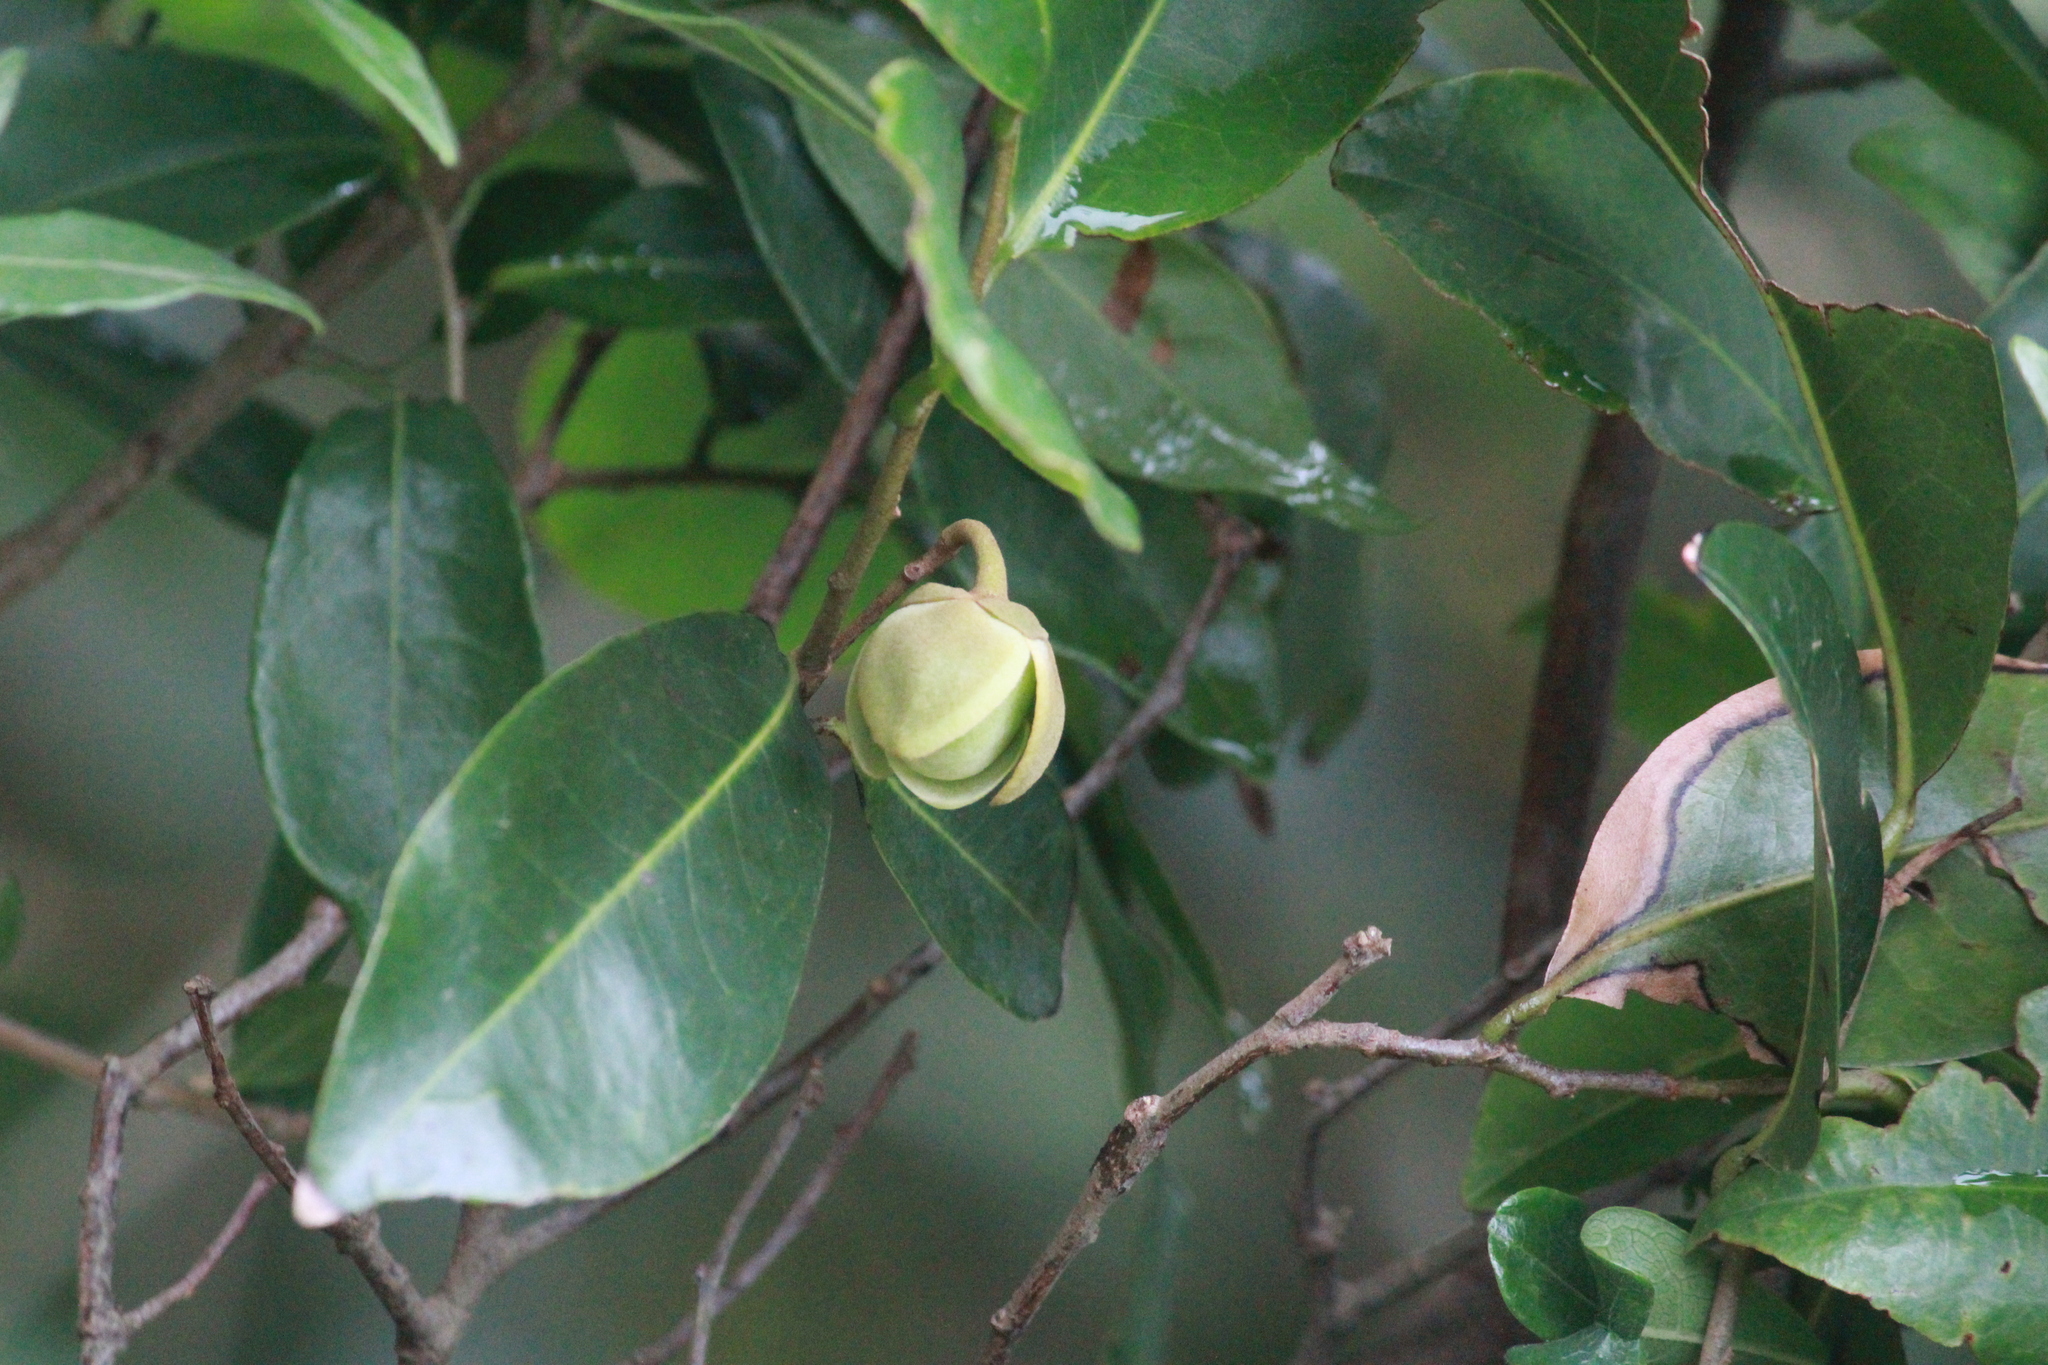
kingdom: Plantae
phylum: Tracheophyta
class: Magnoliopsida
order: Magnoliales
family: Annonaceae
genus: Uvaria
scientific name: Uvaria caffra
